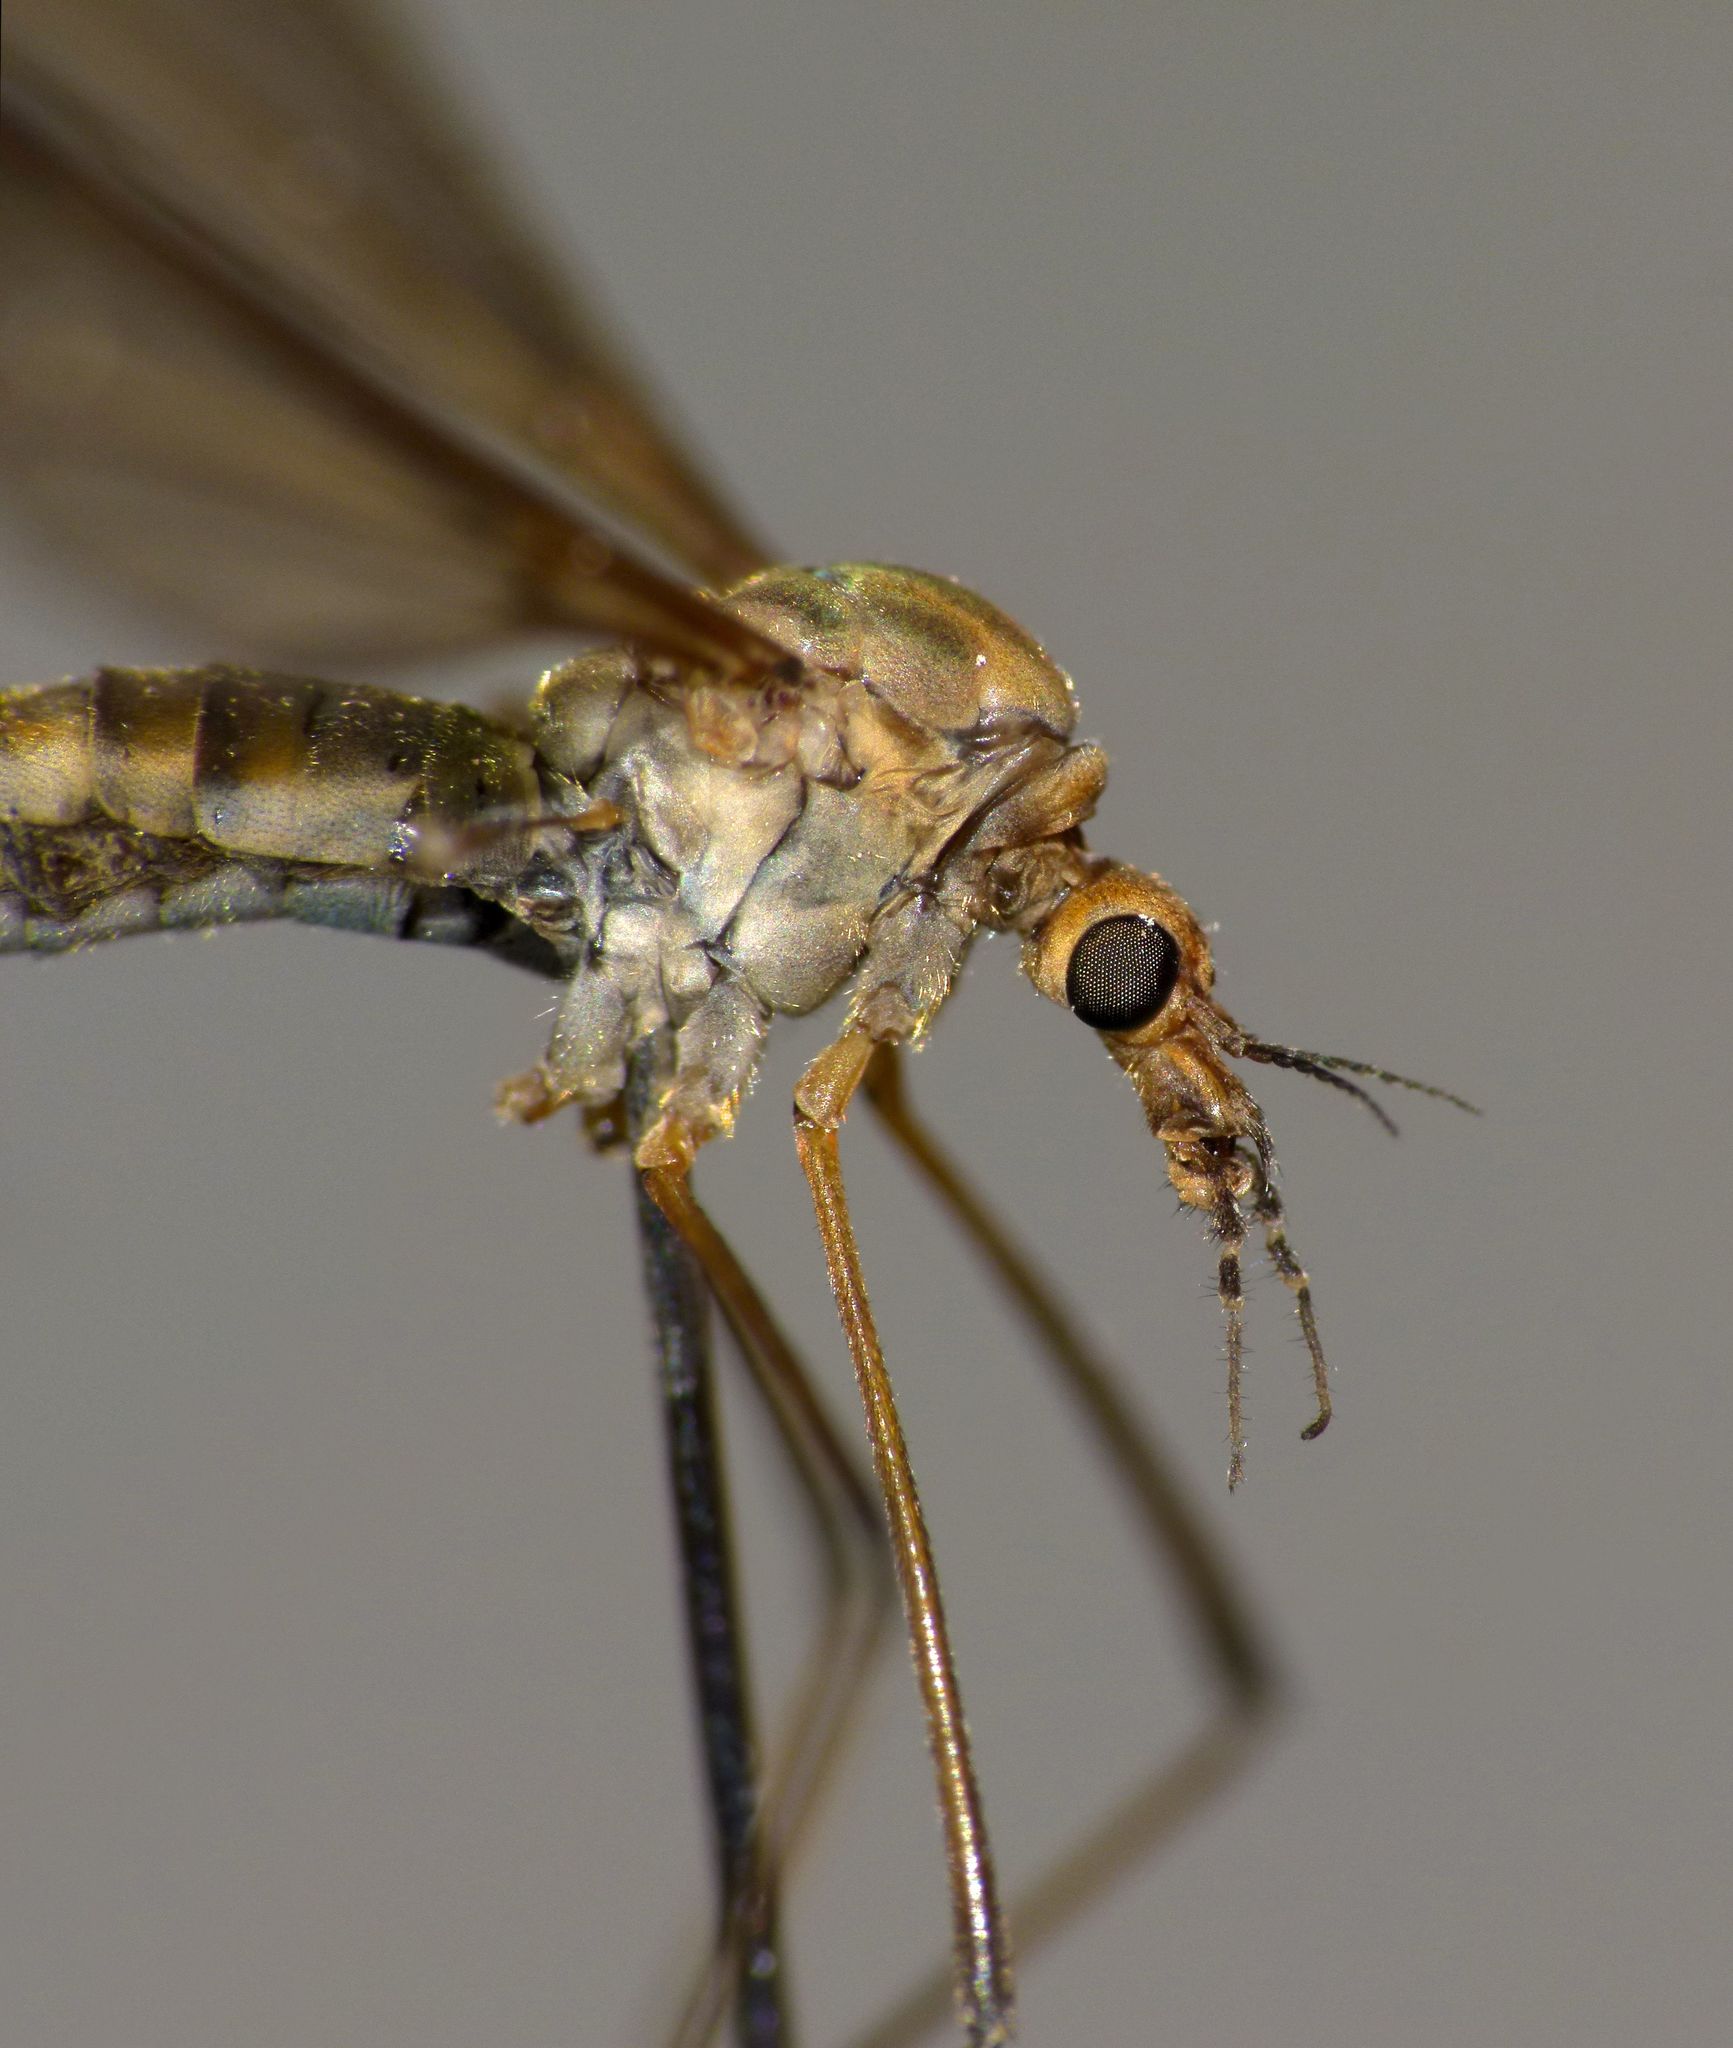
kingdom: Animalia
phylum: Arthropoda
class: Insecta
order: Diptera
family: Tipulidae
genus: Leptotarsus
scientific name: Leptotarsus zeylandiae
